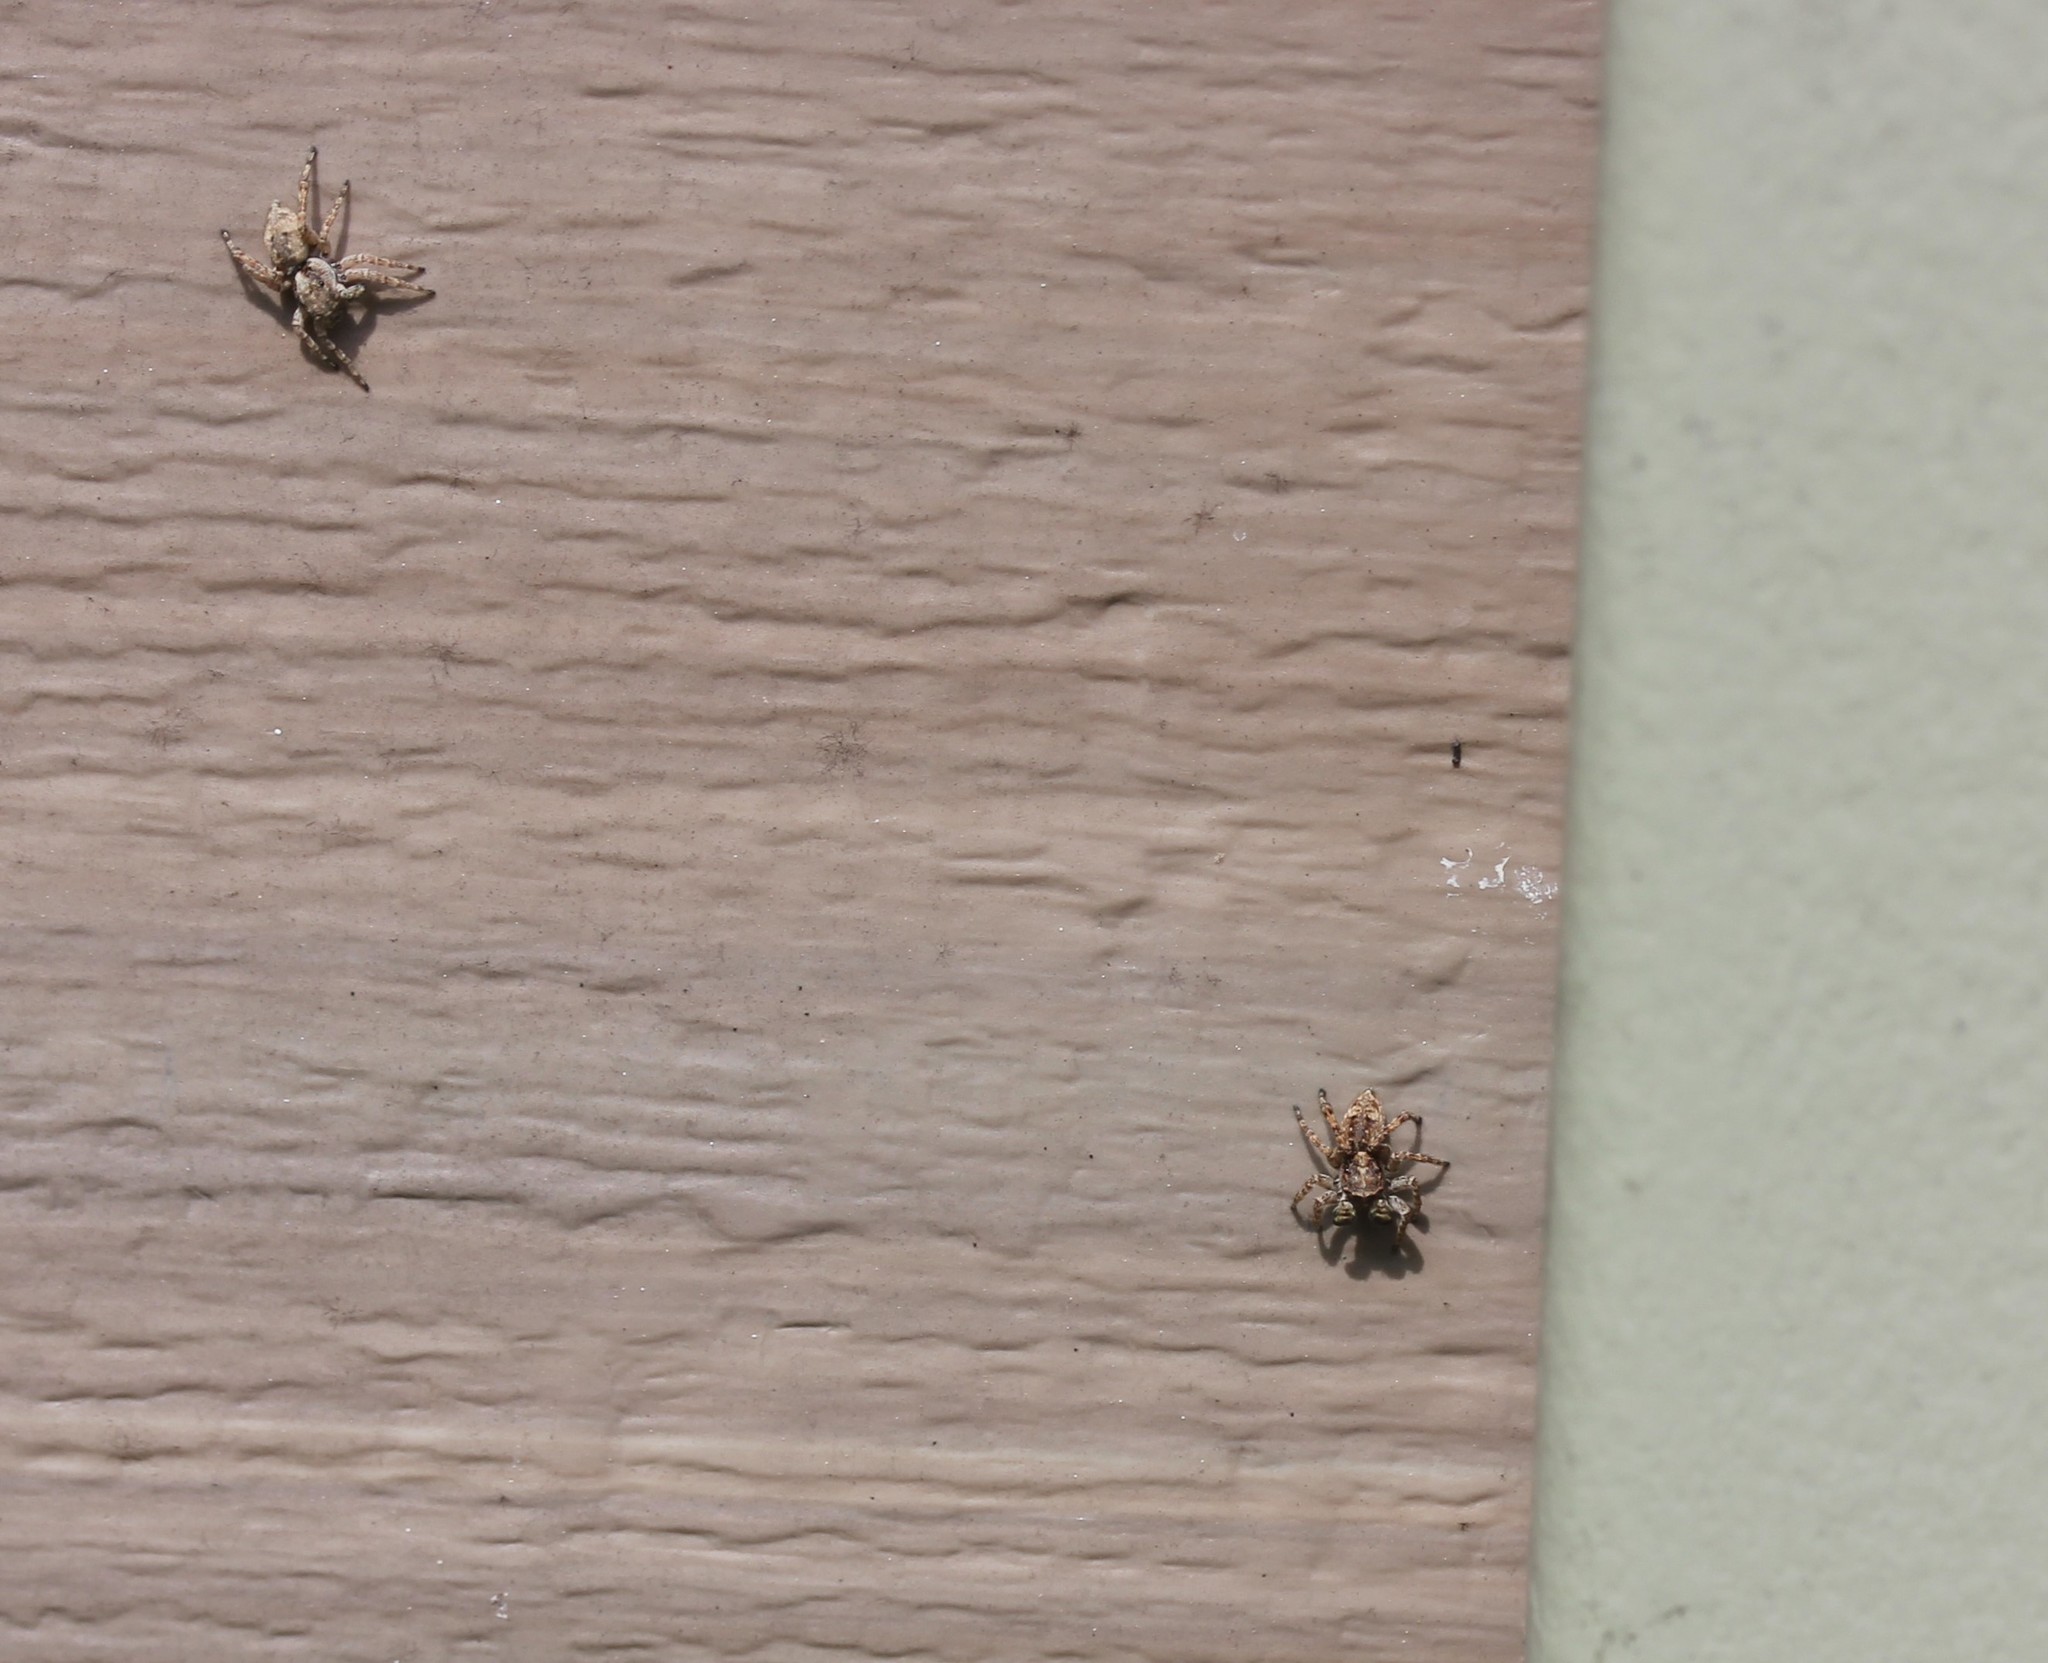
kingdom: Animalia
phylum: Arthropoda
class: Arachnida
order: Araneae
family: Salticidae
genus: Attulus
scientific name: Attulus fasciger
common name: Asiatic wall jumping spider
